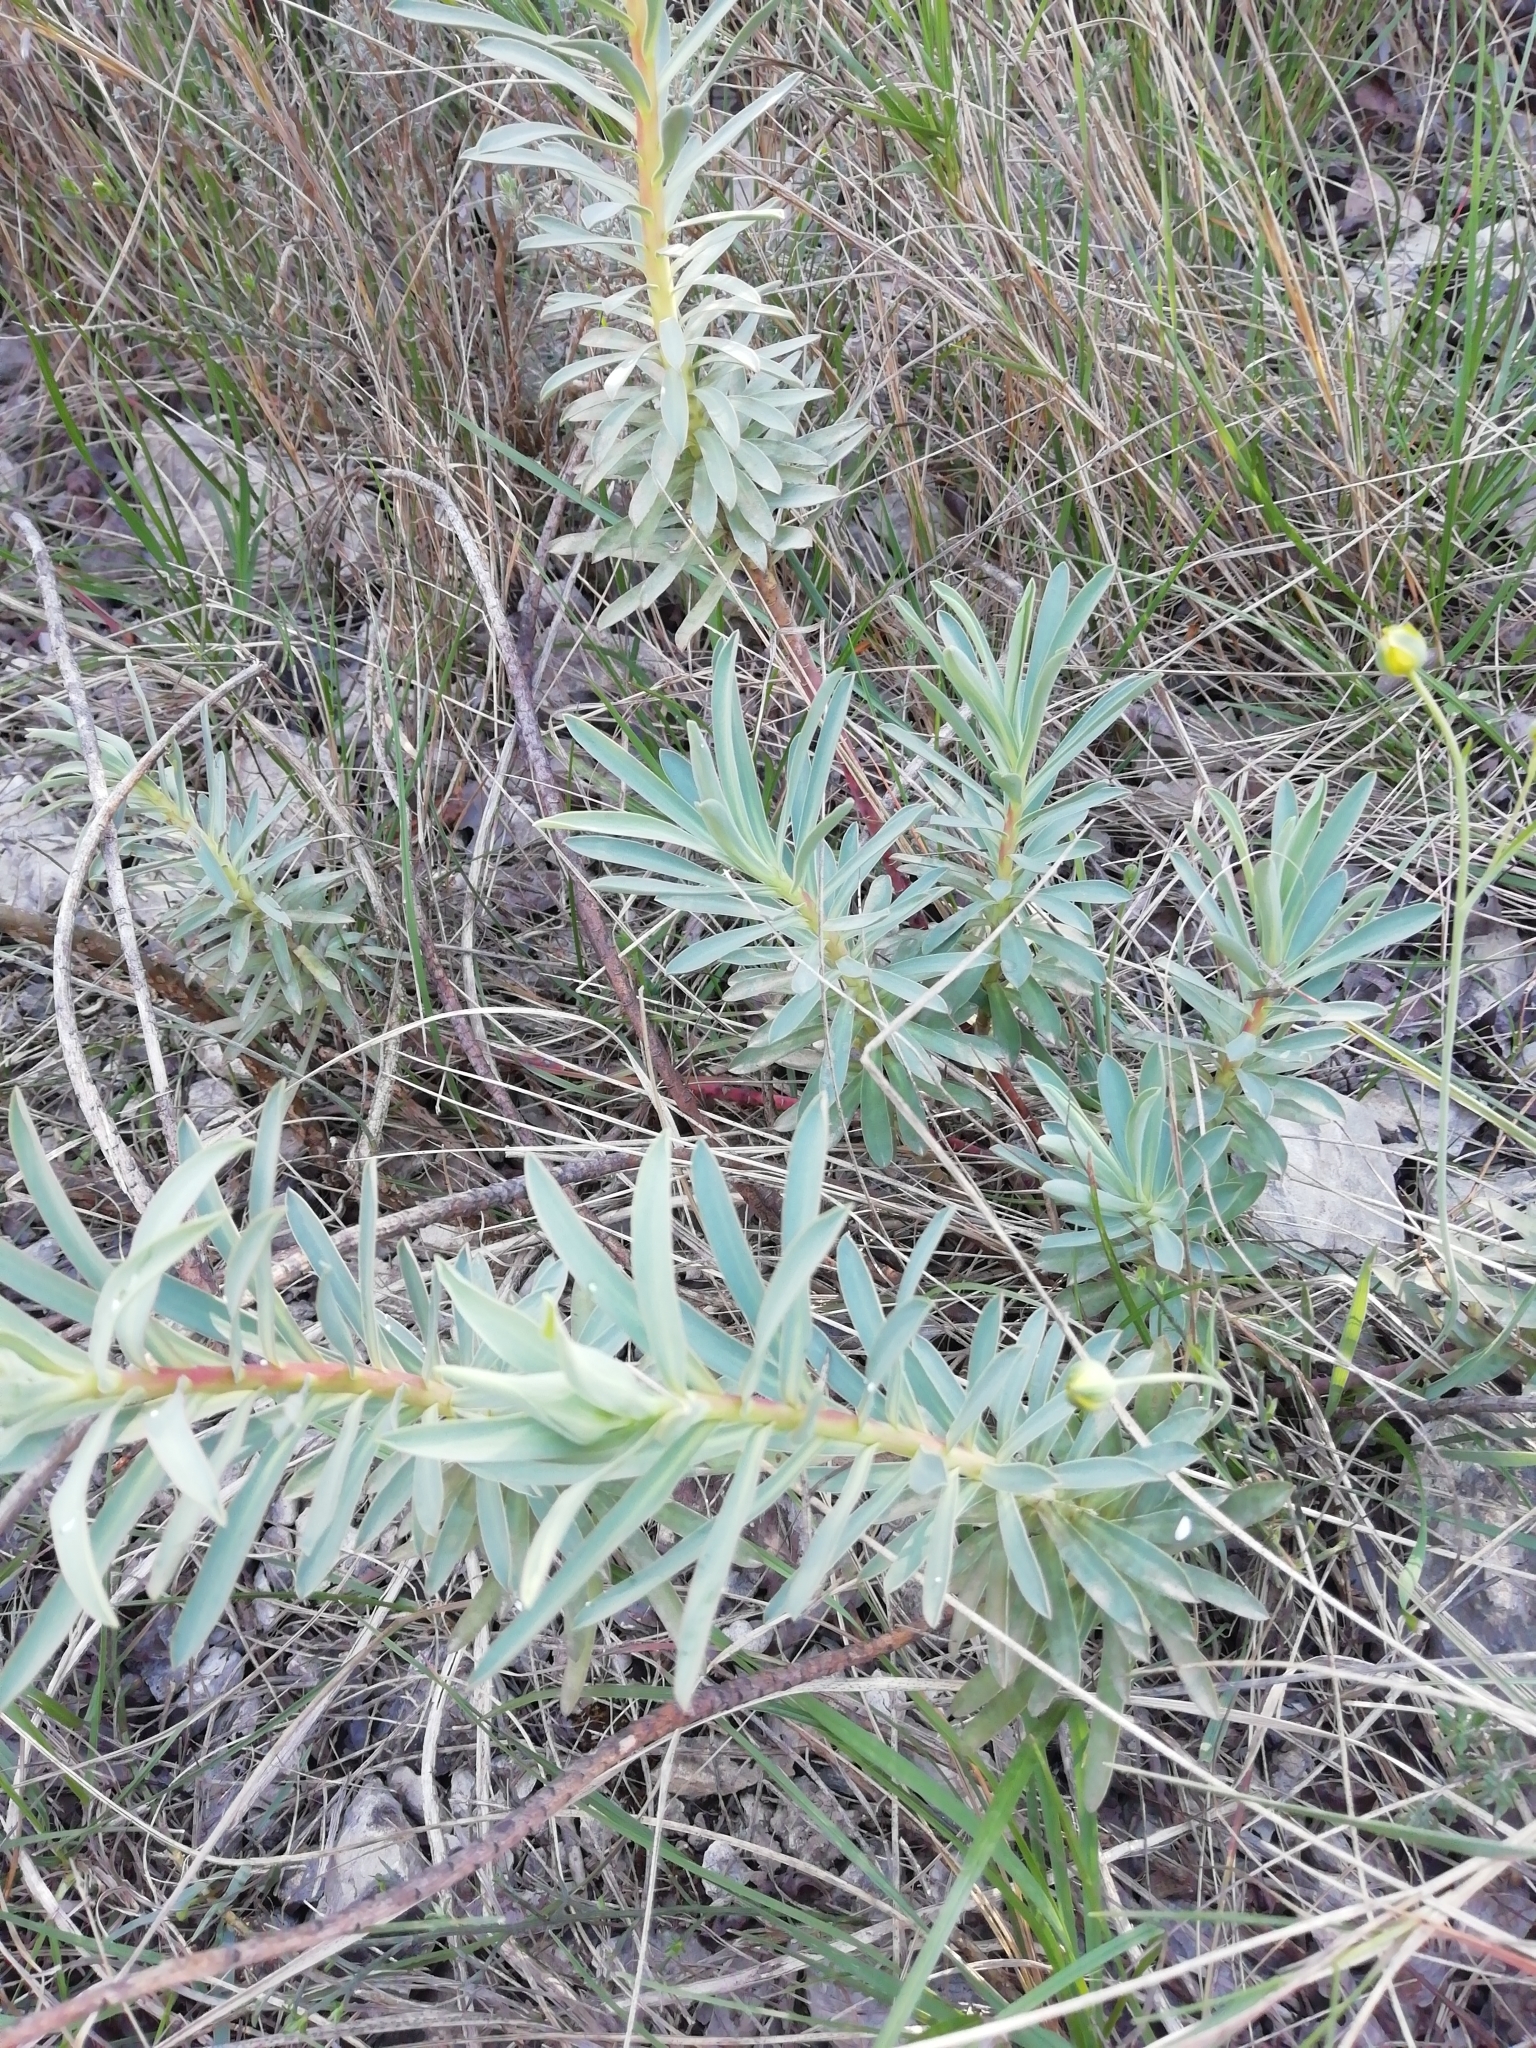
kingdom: Plantae
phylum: Tracheophyta
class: Magnoliopsida
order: Malpighiales
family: Euphorbiaceae
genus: Euphorbia
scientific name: Euphorbia nicaeensis
